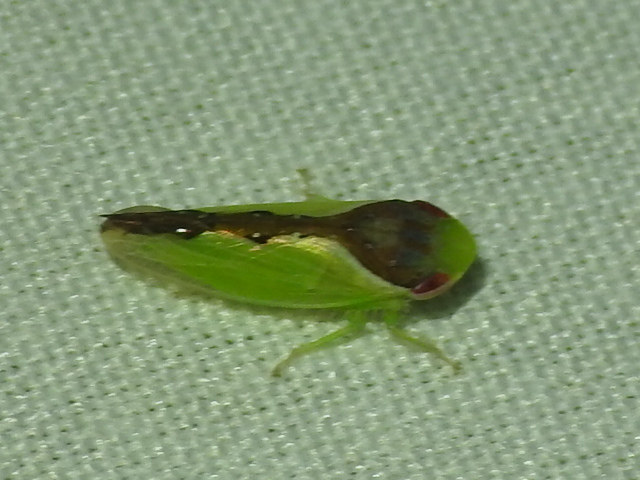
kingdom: Animalia
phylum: Arthropoda
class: Insecta
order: Hemiptera
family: Cicadellidae
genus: Omansobara ing
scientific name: Omansobara ing Omansobara palliolata
